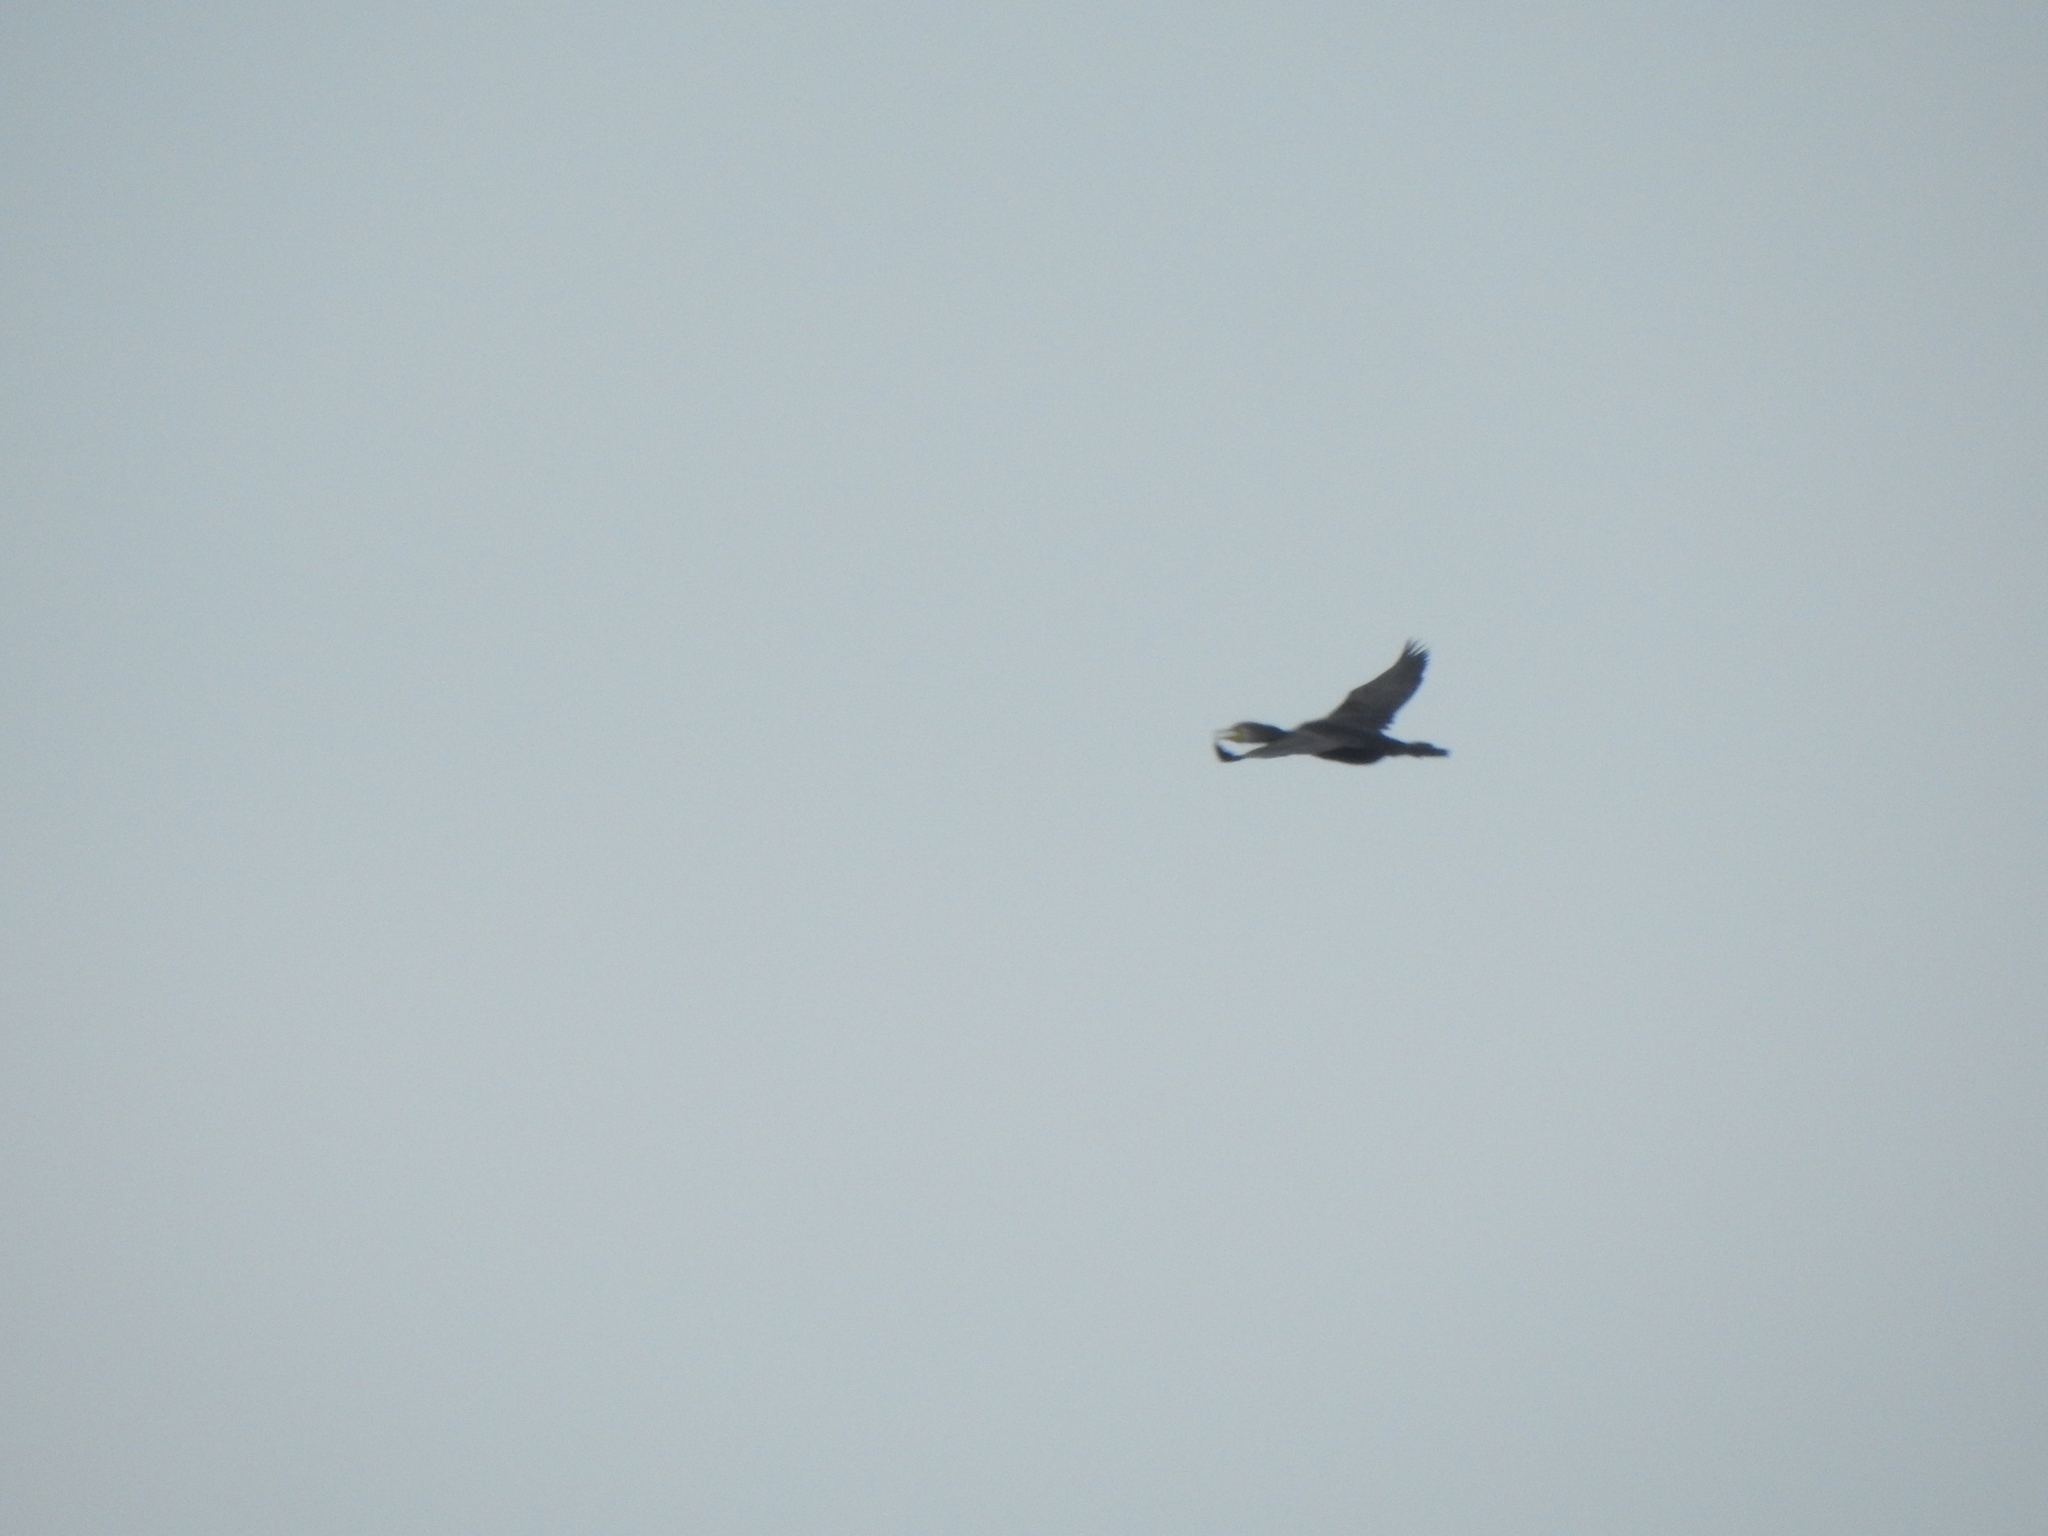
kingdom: Animalia
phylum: Chordata
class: Aves
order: Suliformes
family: Phalacrocoracidae
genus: Phalacrocorax
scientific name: Phalacrocorax carbo
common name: Great cormorant
